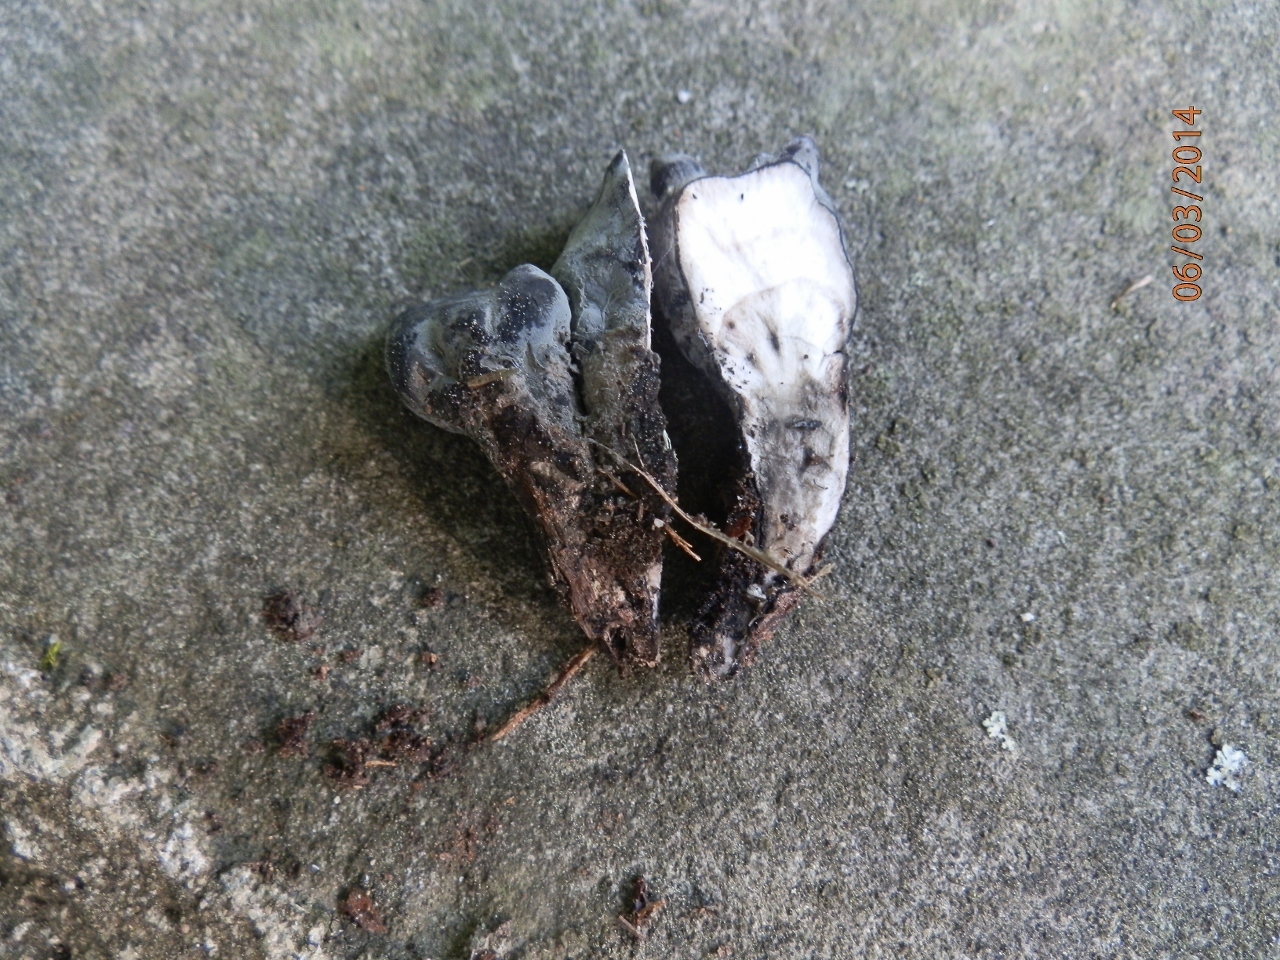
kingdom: Fungi
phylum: Ascomycota
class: Sordariomycetes
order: Xylariales
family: Xylariaceae
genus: Xylaria
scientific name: Xylaria polymorpha
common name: Dead man's fingers
